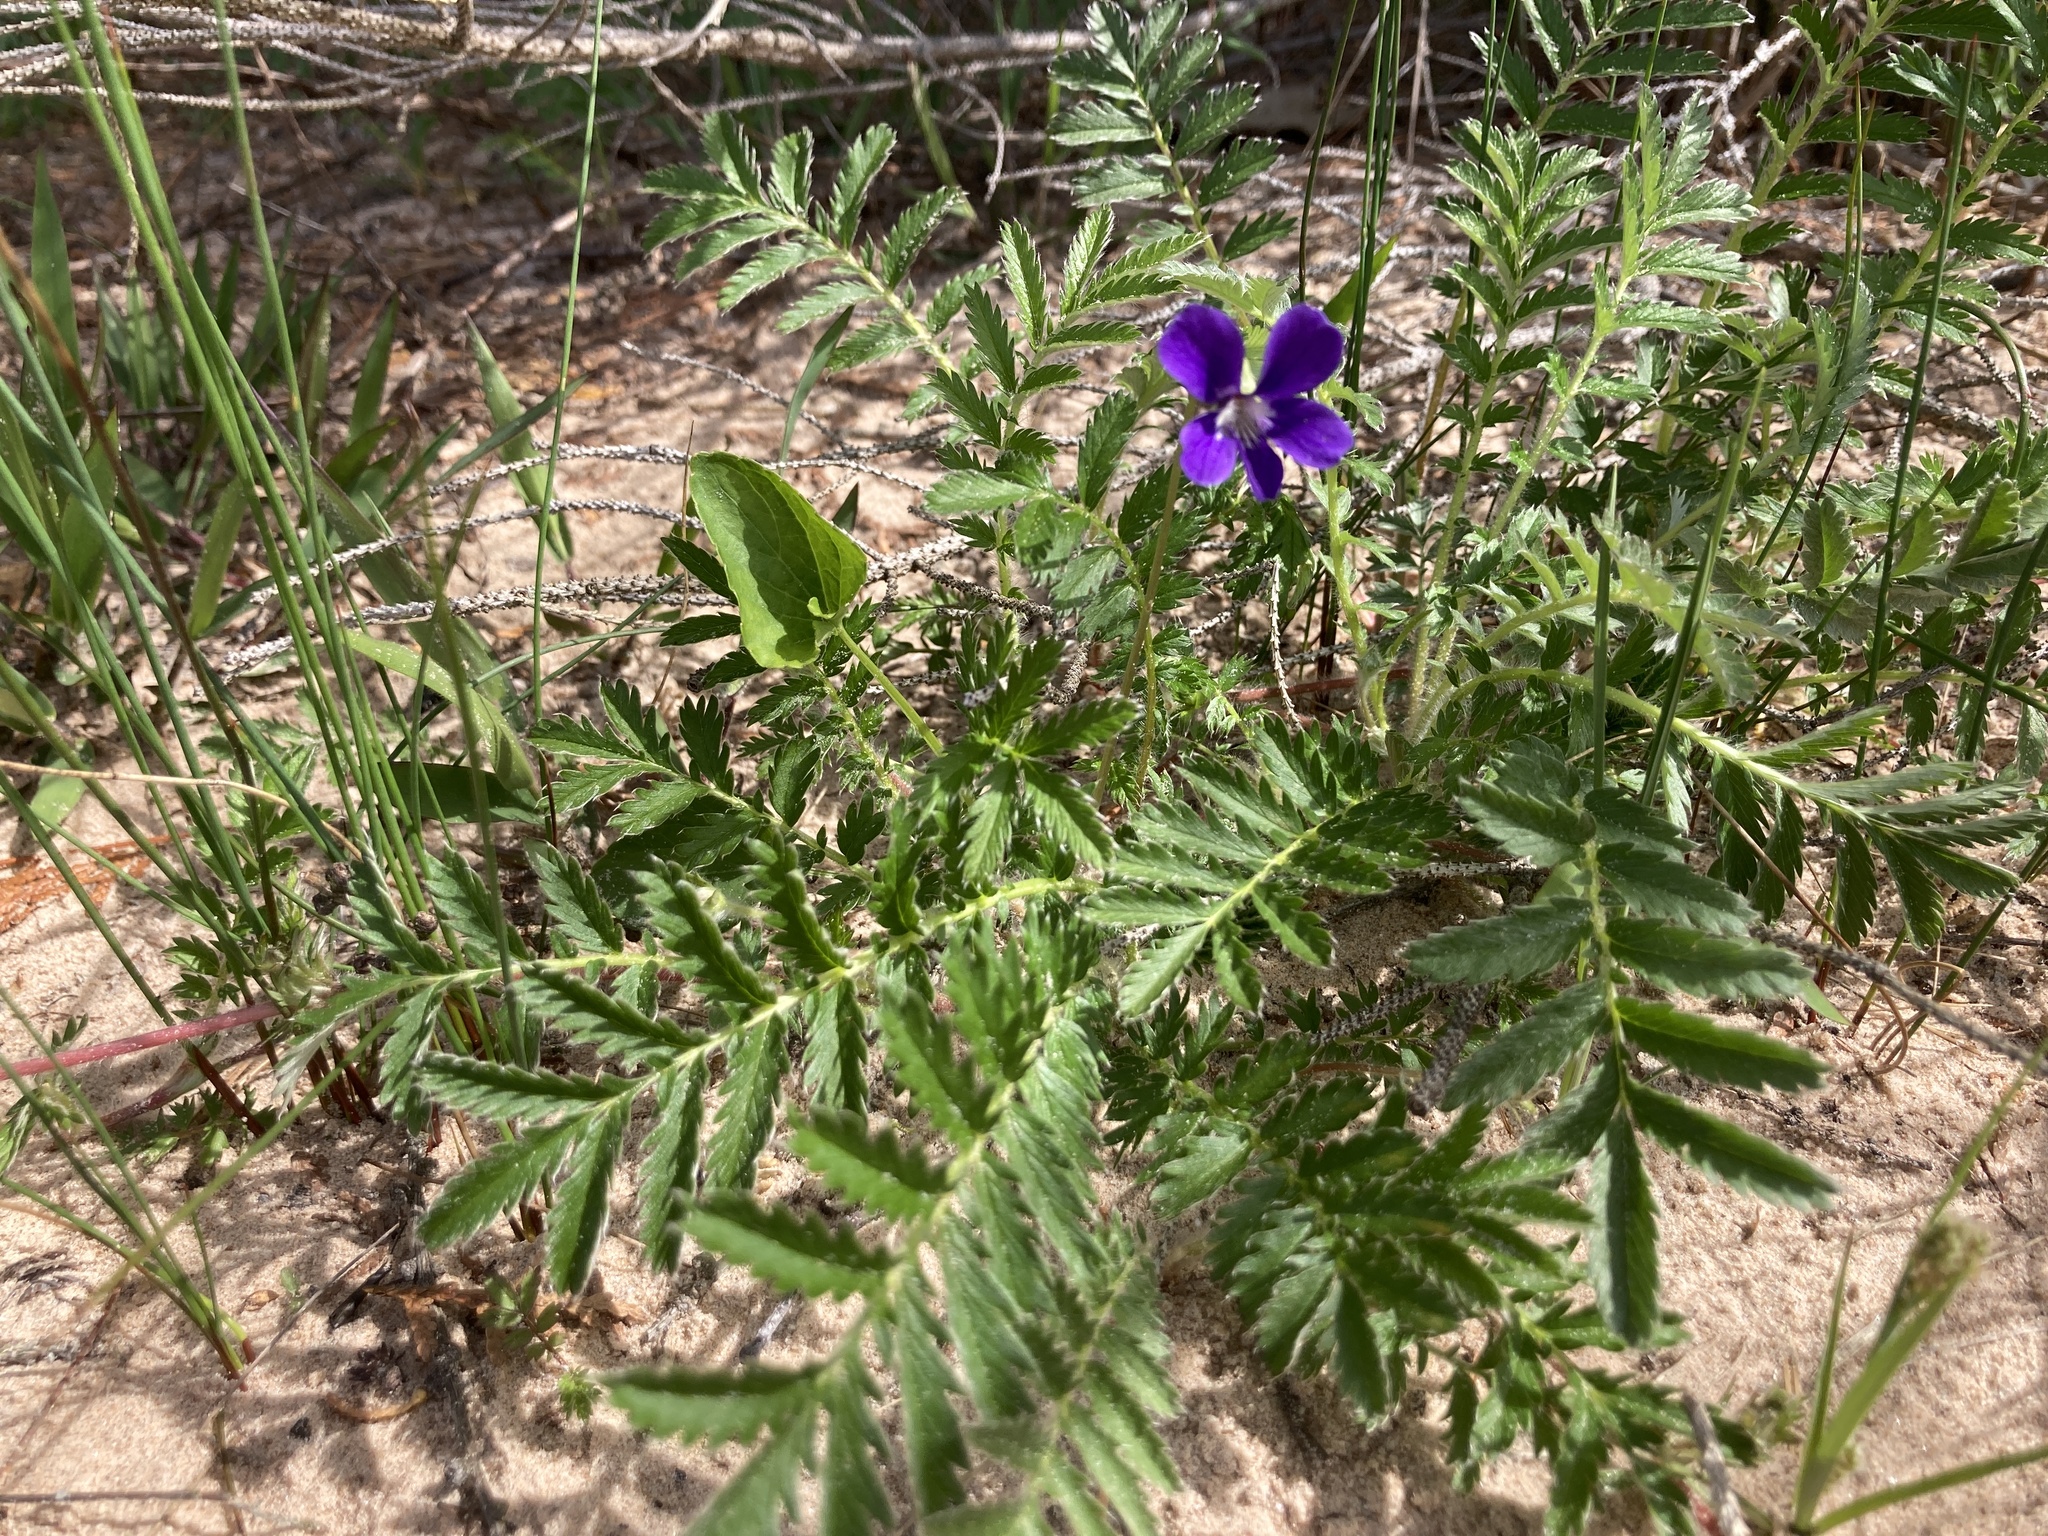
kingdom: Plantae
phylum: Tracheophyta
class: Magnoliopsida
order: Malpighiales
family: Violaceae
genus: Viola
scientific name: Viola nephrophylla
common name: Blue meadow violet
